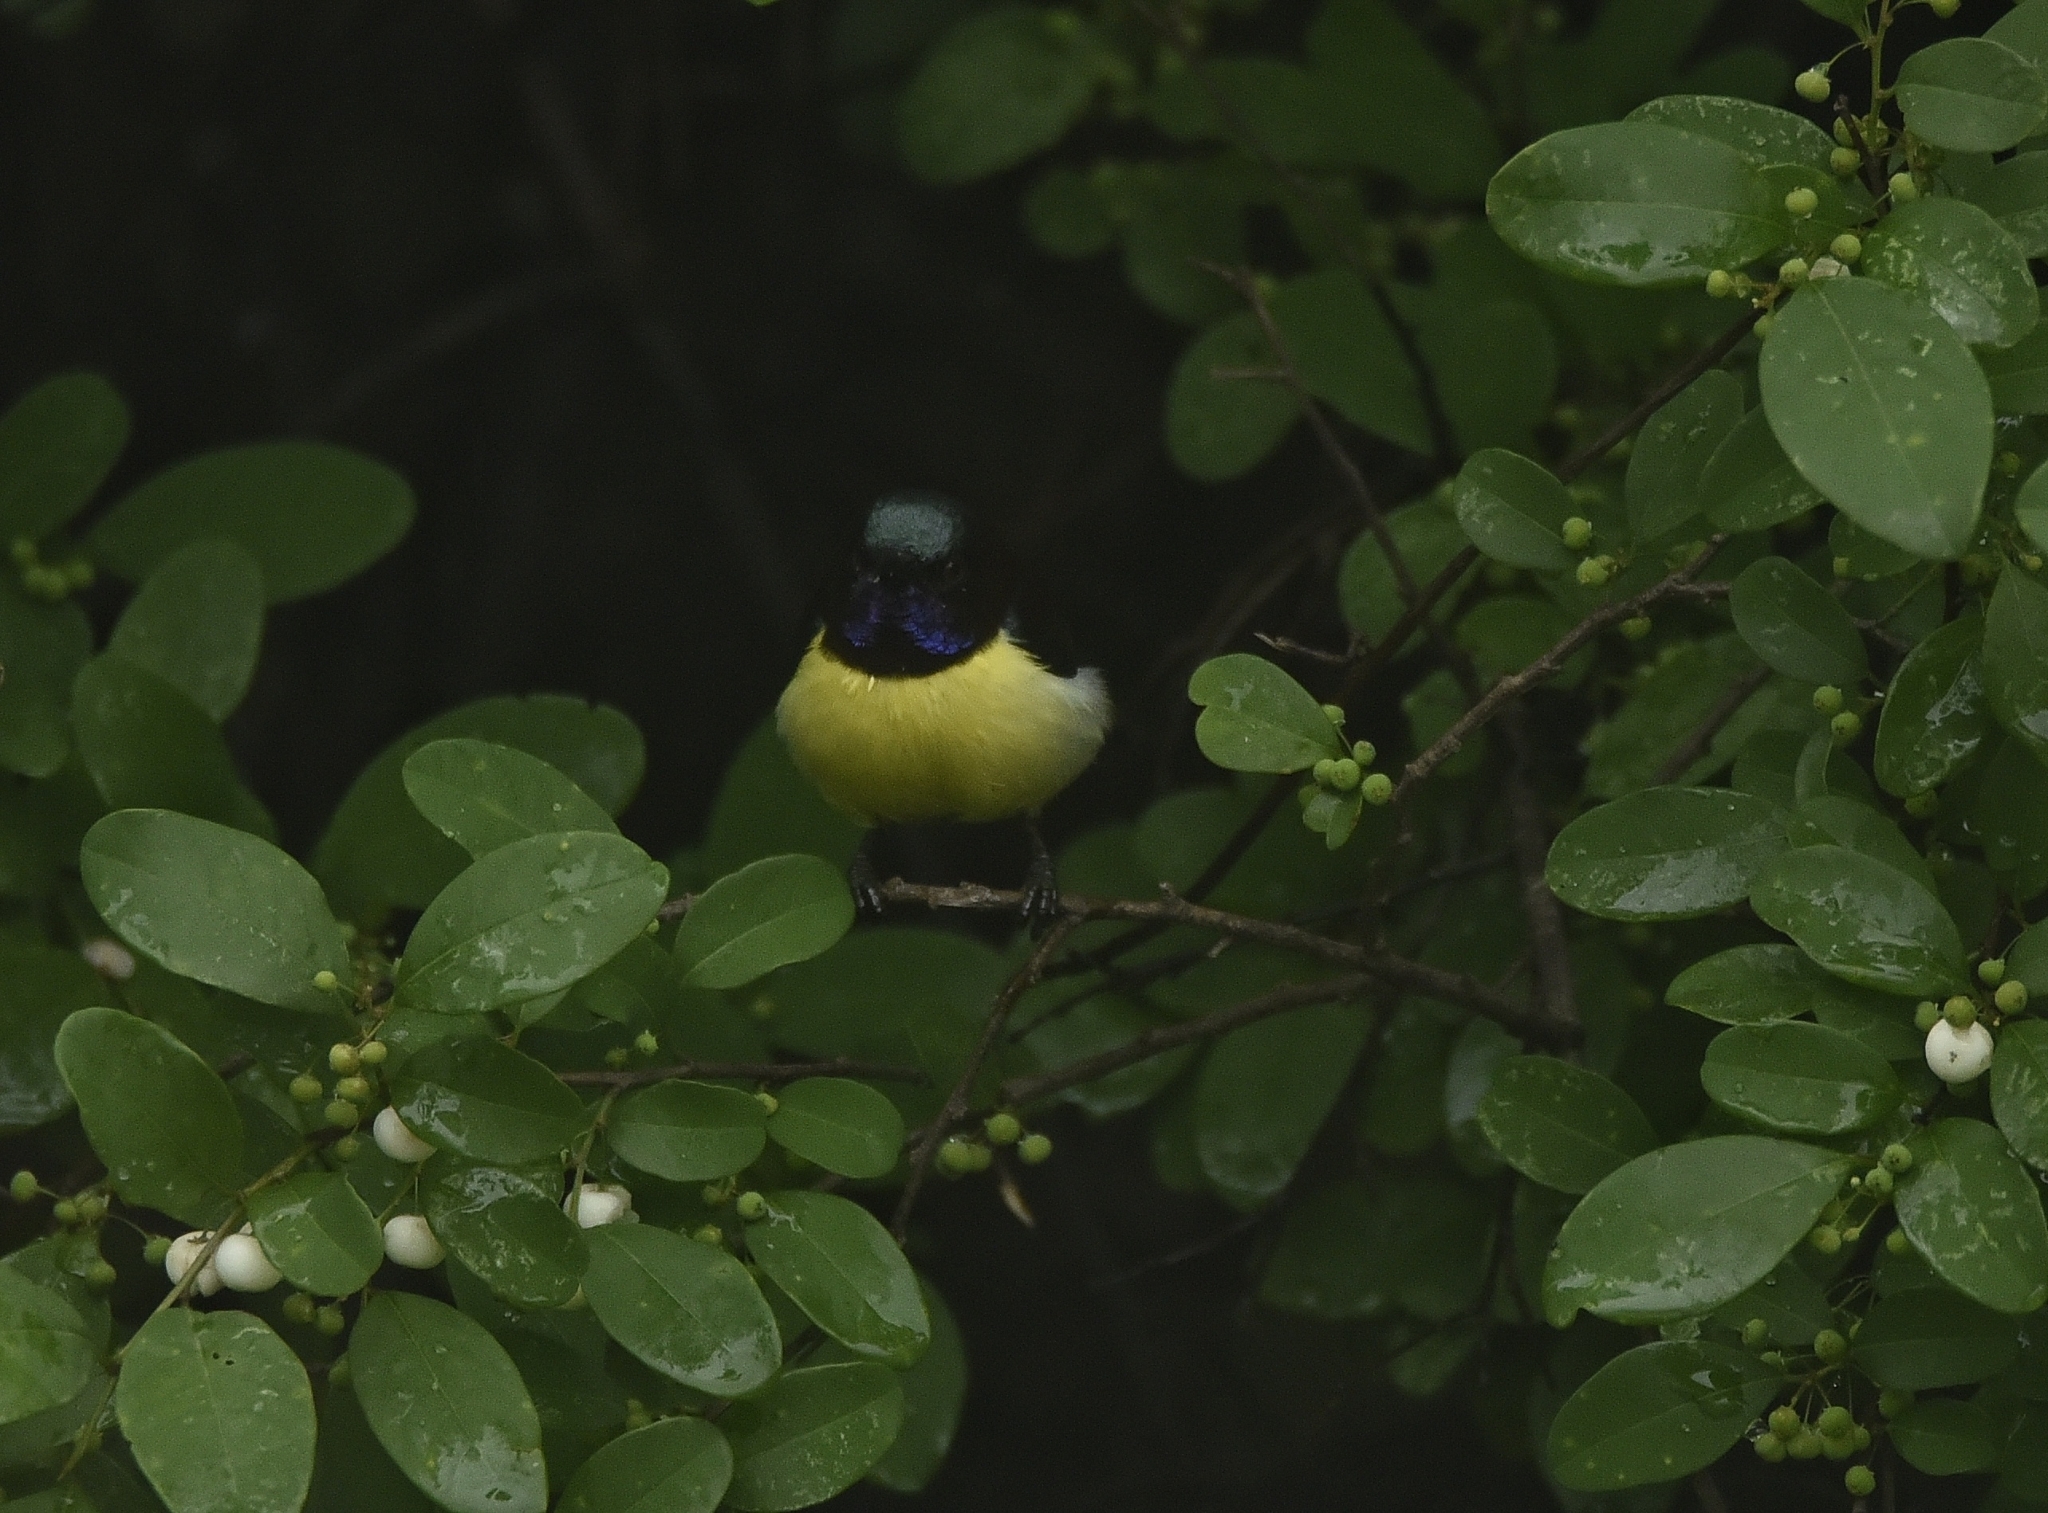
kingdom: Animalia
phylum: Chordata
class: Aves
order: Passeriformes
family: Nectariniidae
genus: Leptocoma
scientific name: Leptocoma zeylonica
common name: Purple-rumped sunbird
